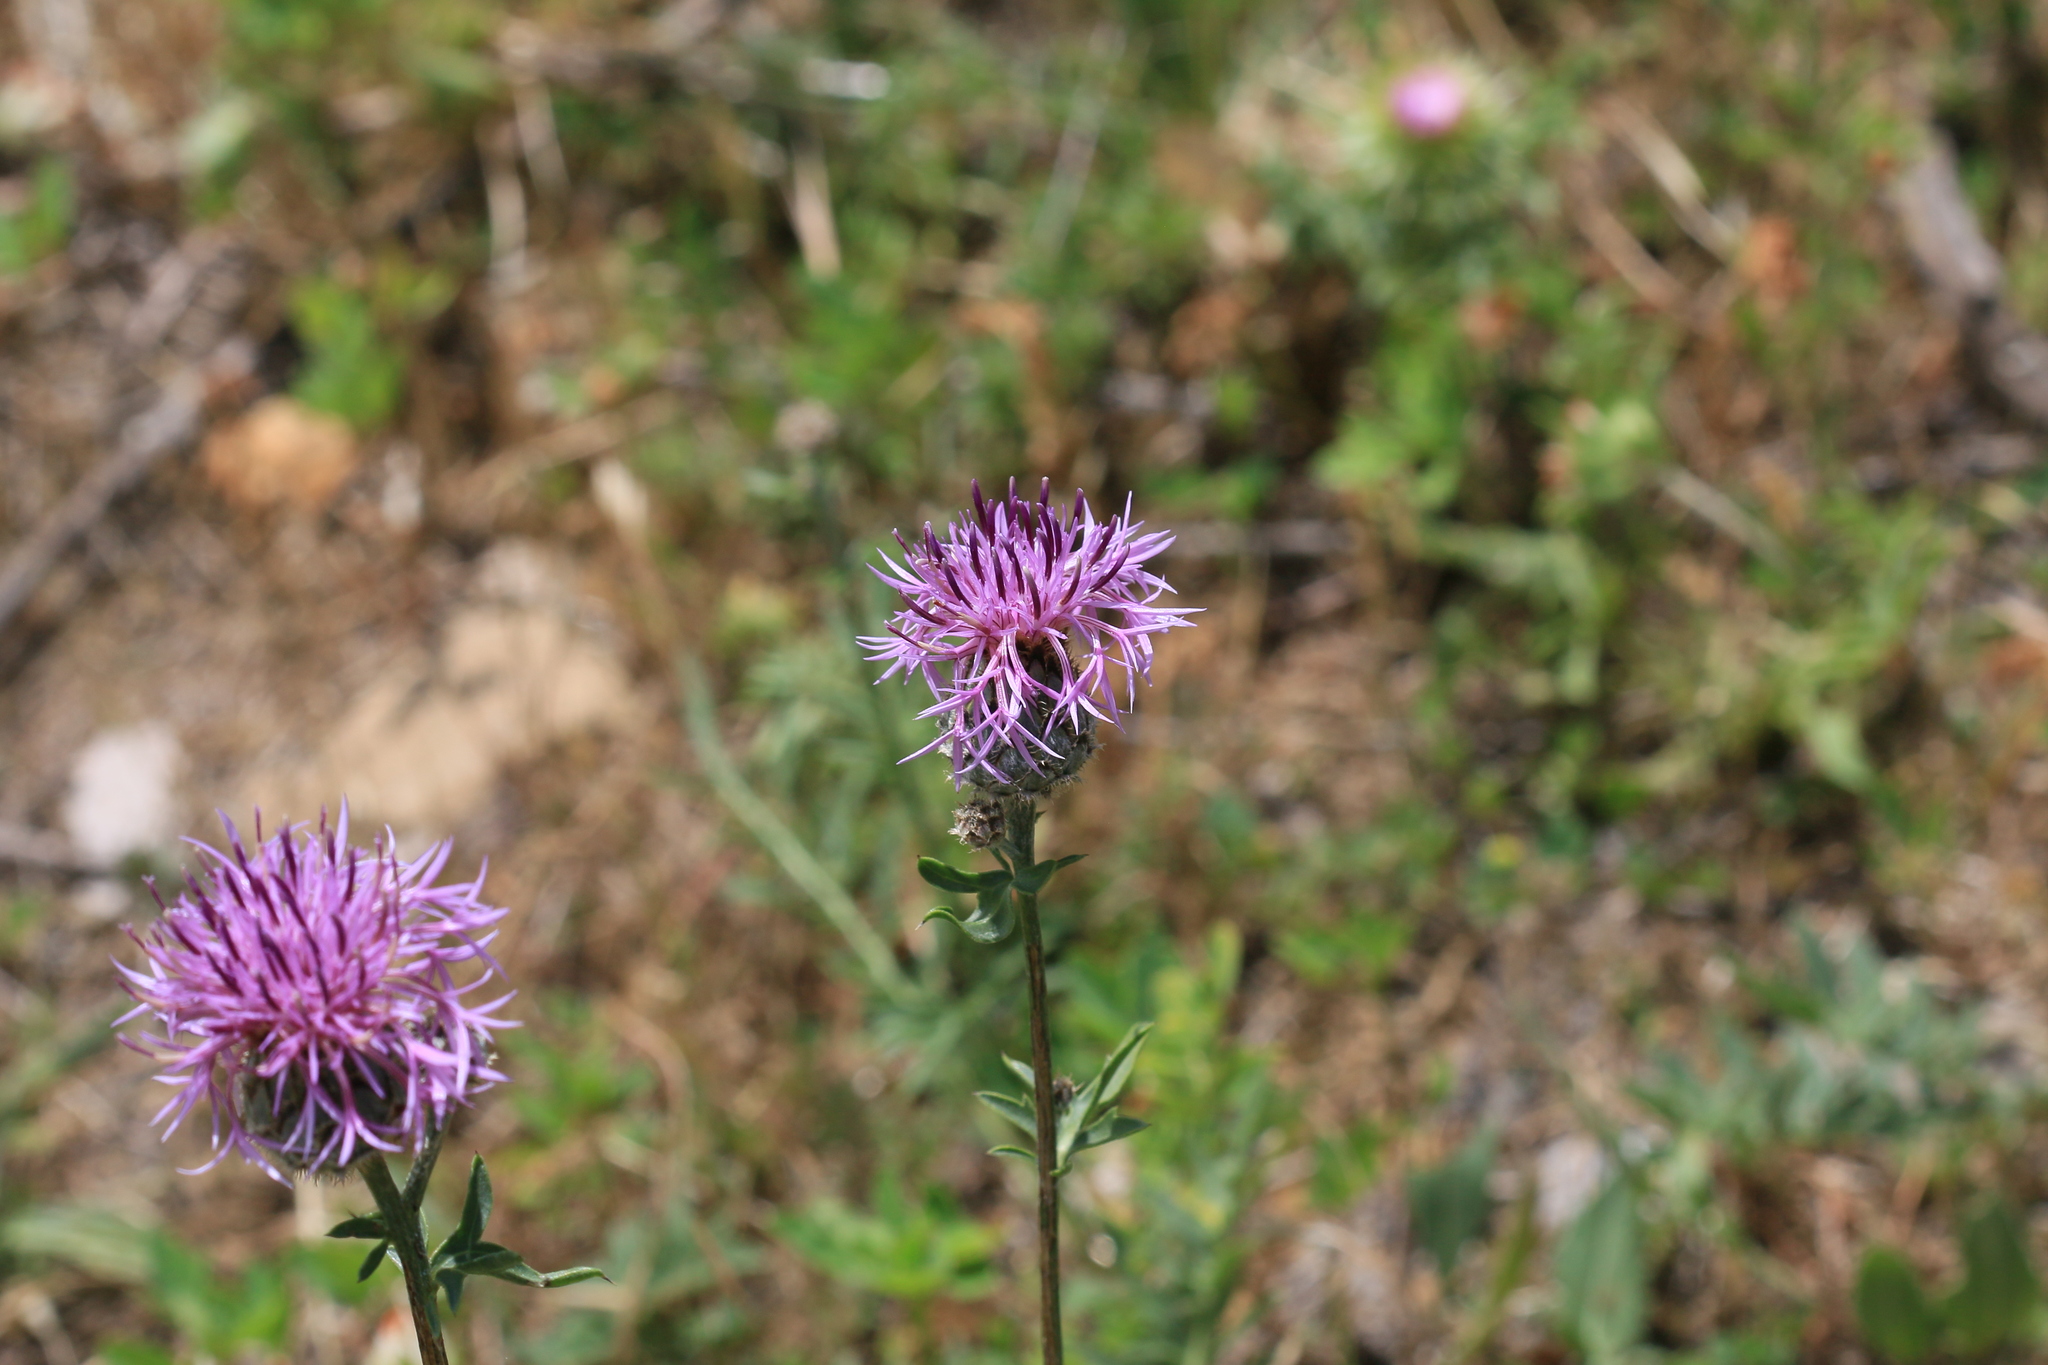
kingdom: Plantae
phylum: Tracheophyta
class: Magnoliopsida
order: Asterales
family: Asteraceae
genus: Centaurea
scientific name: Centaurea scabiosa
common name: Greater knapweed
